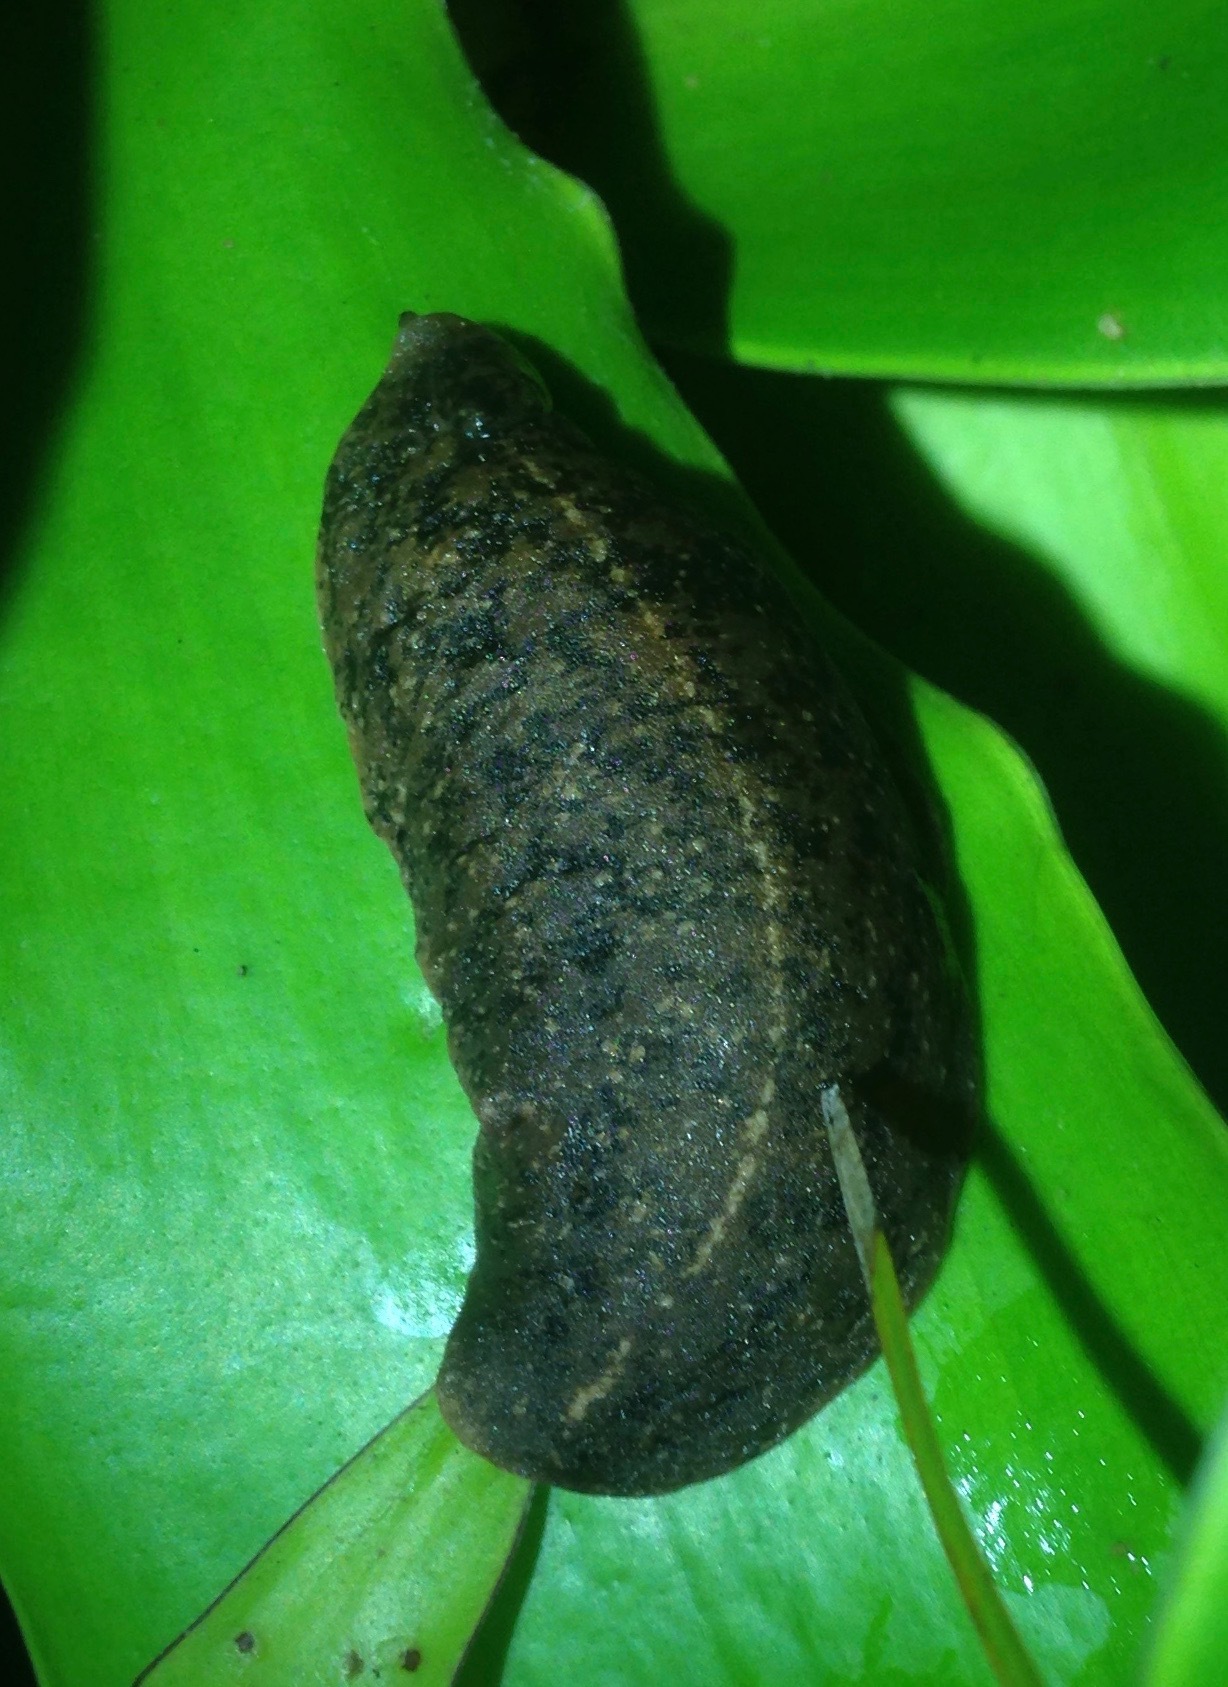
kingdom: Animalia
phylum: Mollusca
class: Gastropoda
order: Systellommatophora
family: Veronicellidae
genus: Laevicaulis
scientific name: Laevicaulis alte
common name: Tropical leatherleaf
